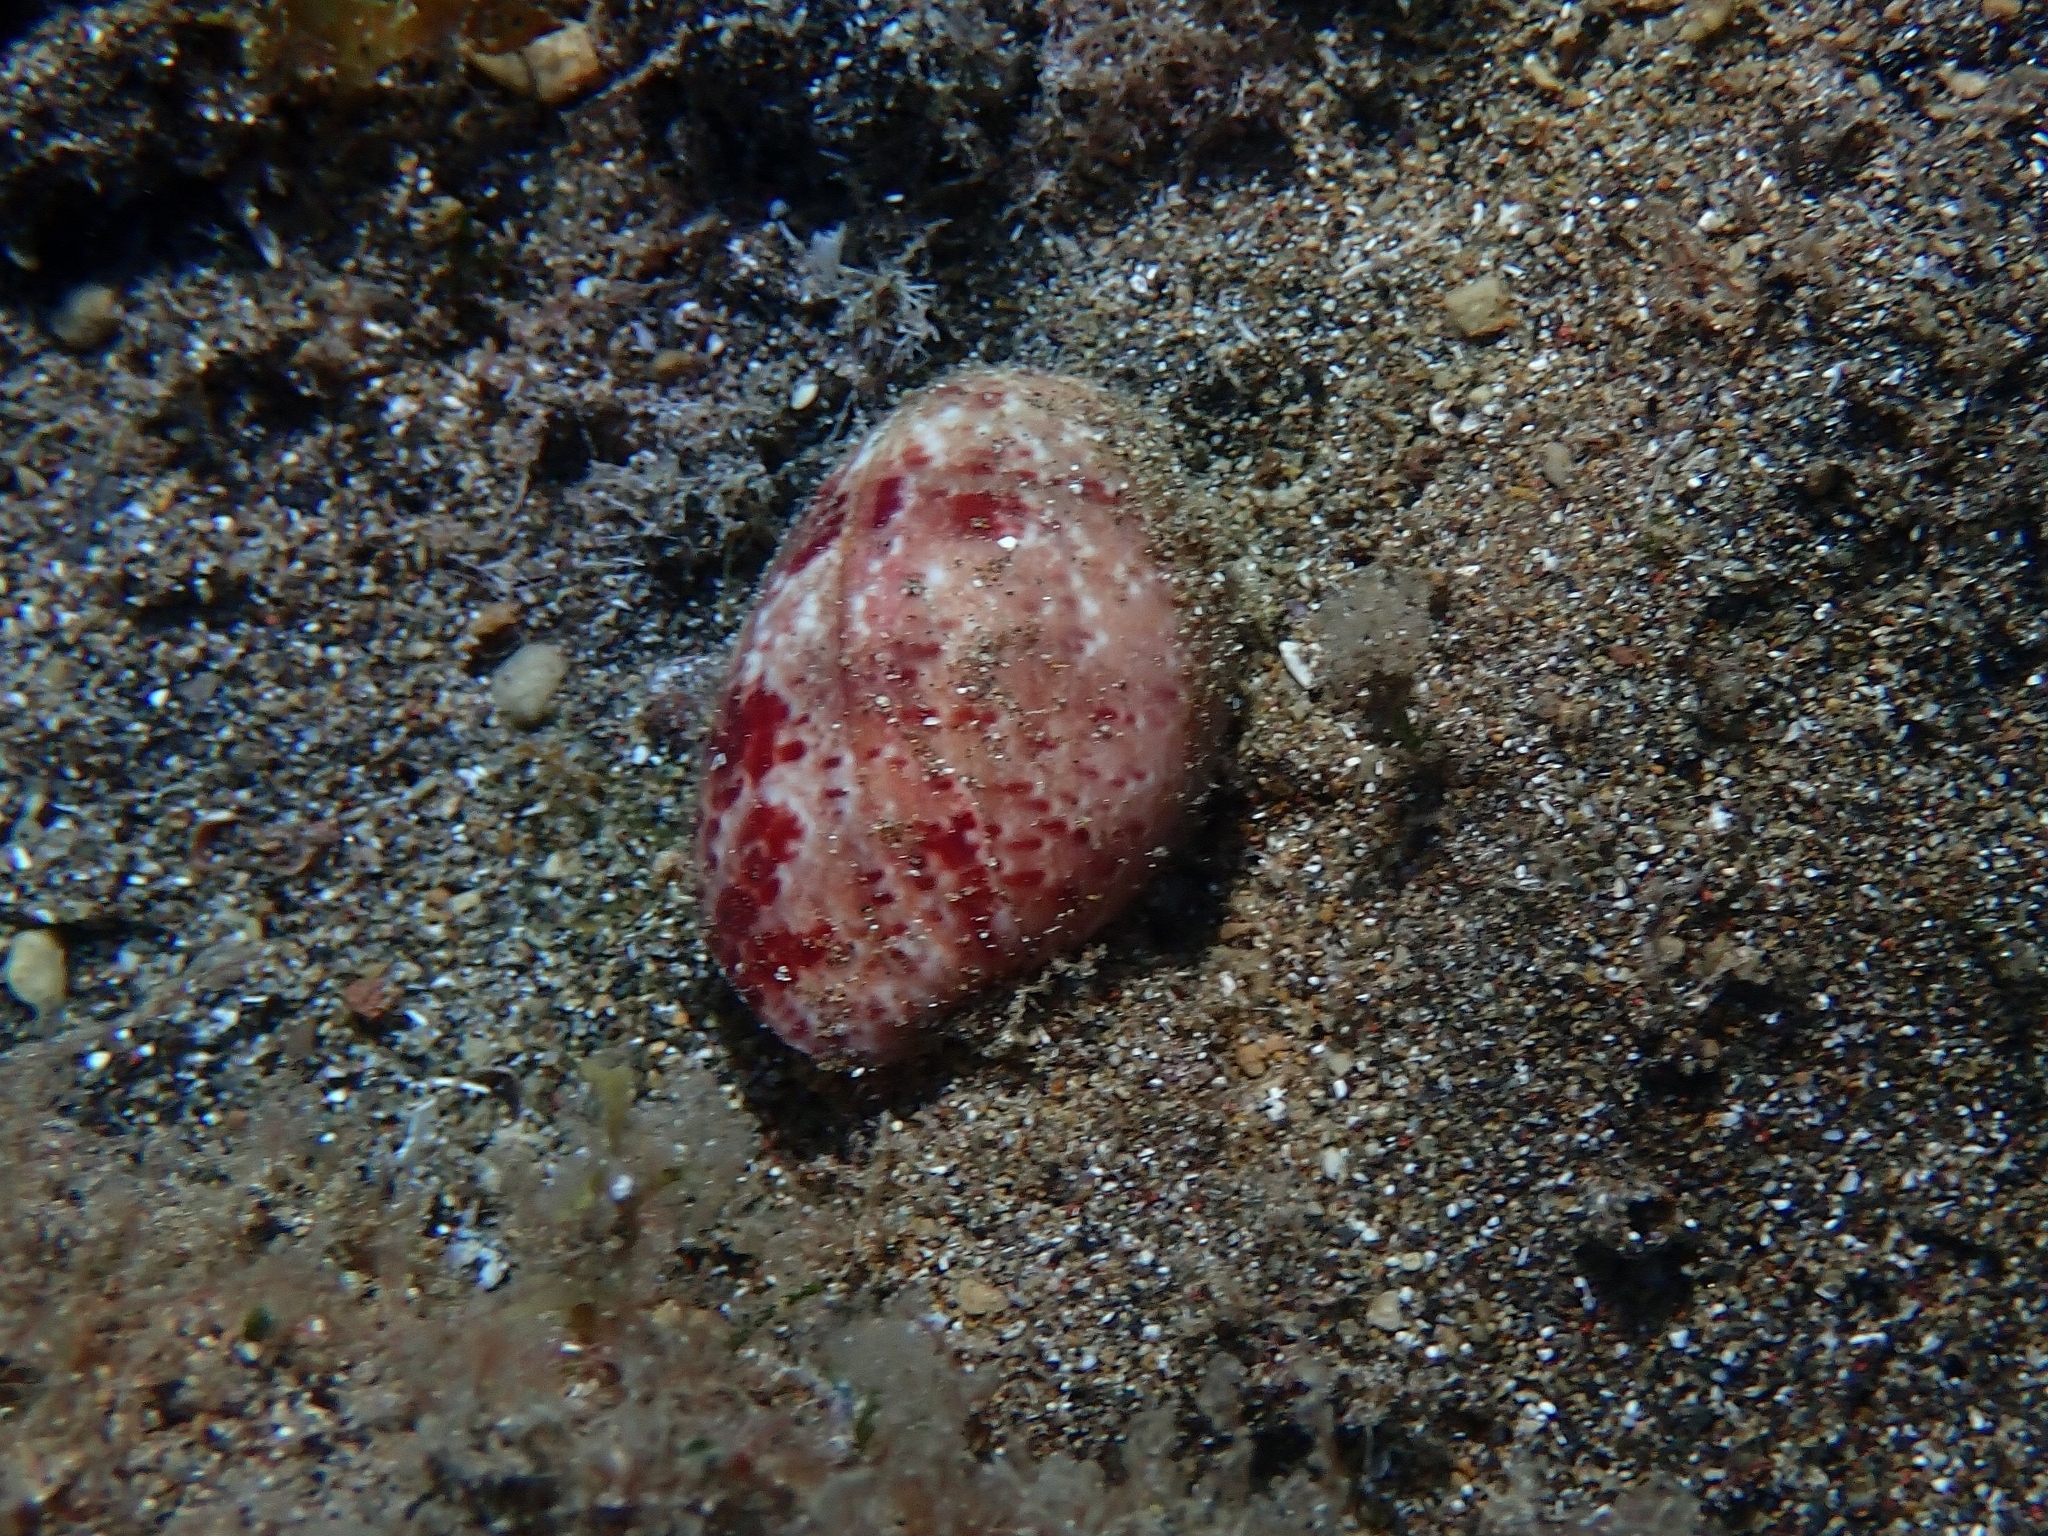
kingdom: Animalia
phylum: Mollusca
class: Gastropoda
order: Cephalaspidea
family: Bullidae
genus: Bulla
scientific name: Bulla mabillei
